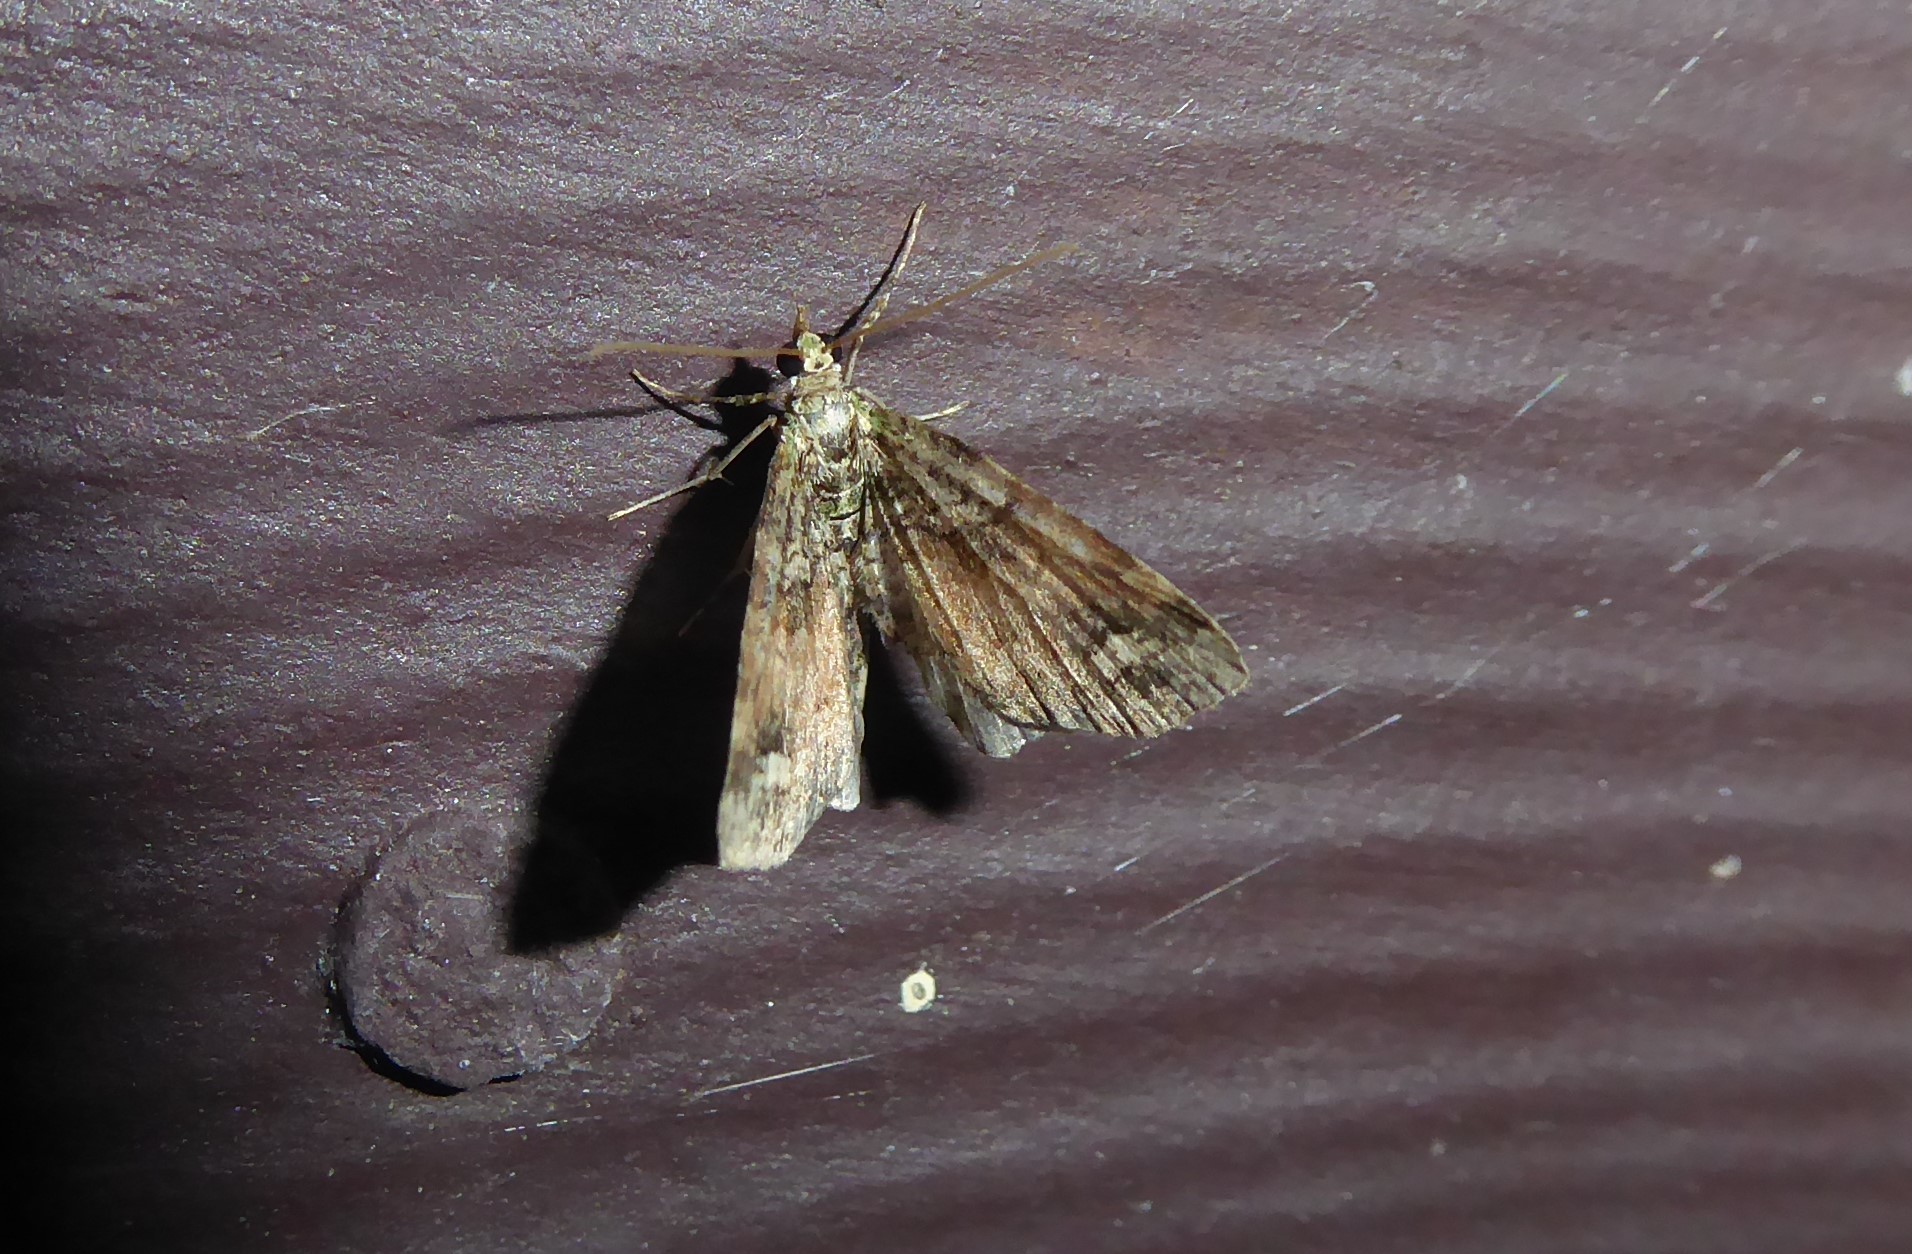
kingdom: Animalia
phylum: Arthropoda
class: Insecta
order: Lepidoptera
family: Geometridae
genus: Idaea
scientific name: Idaea mutanda
